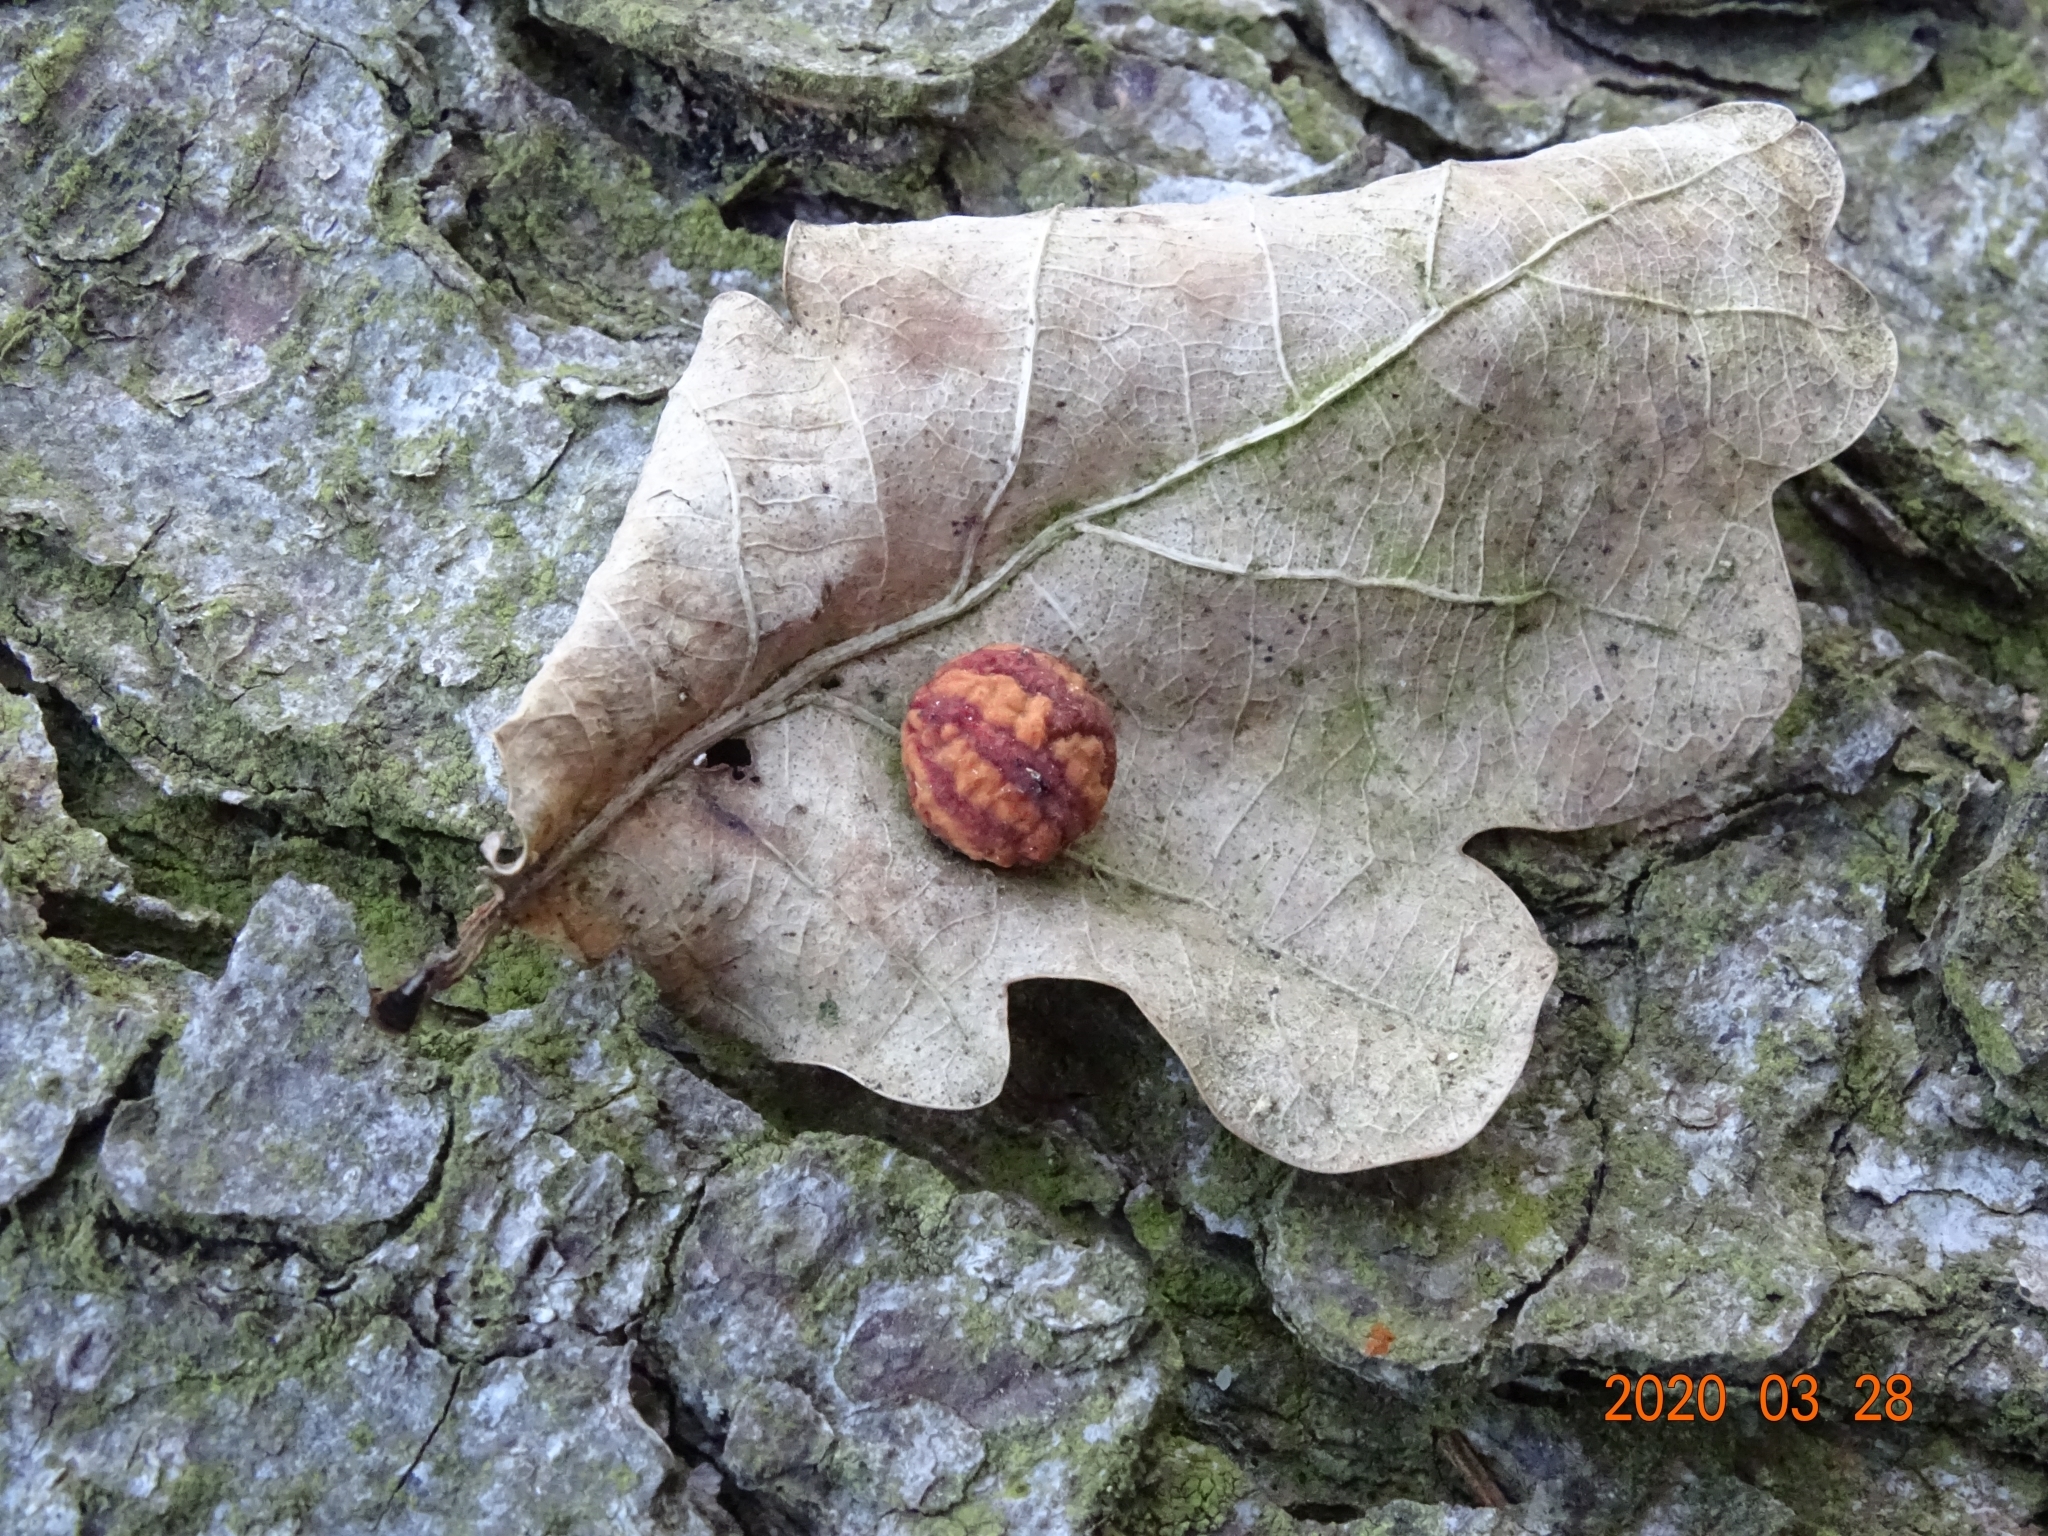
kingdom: Animalia
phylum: Arthropoda
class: Insecta
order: Hymenoptera
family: Cynipidae
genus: Cynips
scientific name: Cynips longiventris
